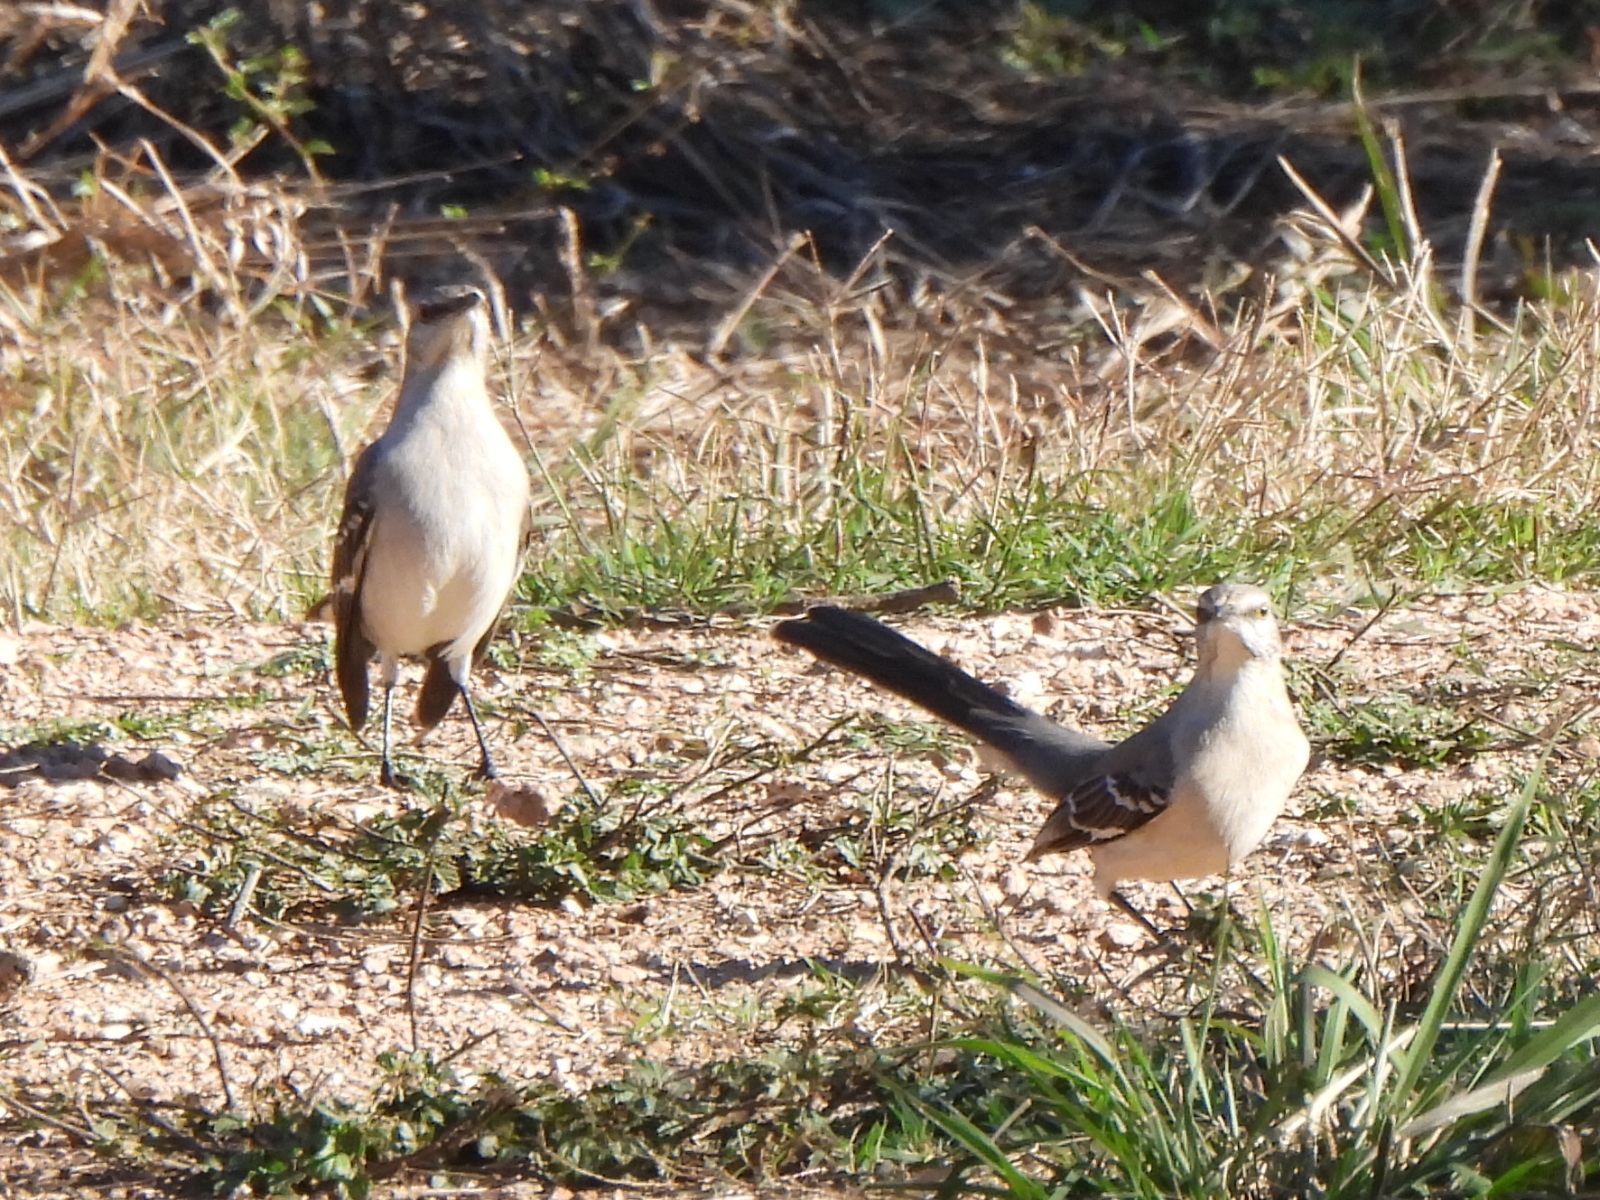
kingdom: Animalia
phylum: Chordata
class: Aves
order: Passeriformes
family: Mimidae
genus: Mimus
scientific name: Mimus polyglottos
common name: Northern mockingbird
